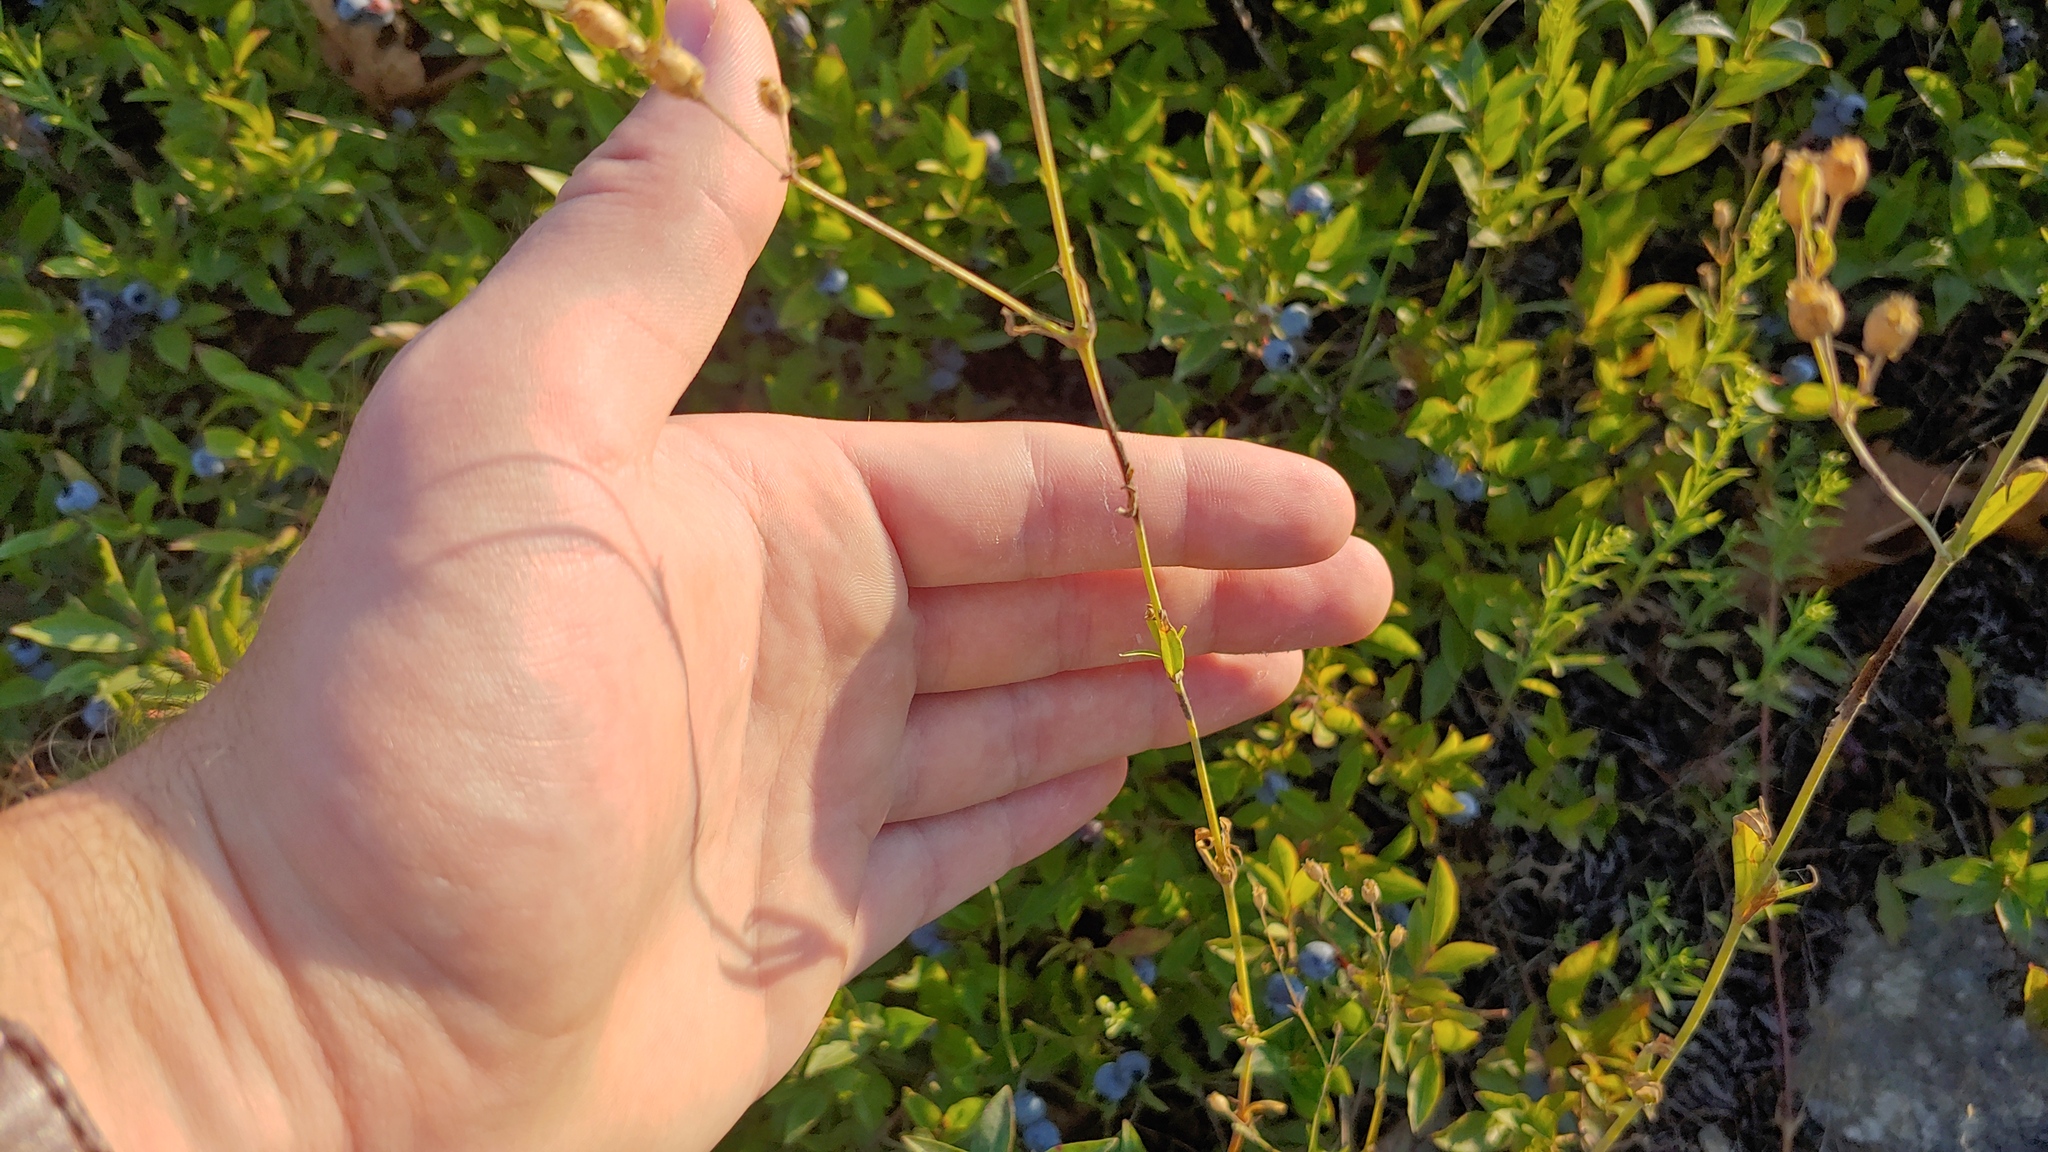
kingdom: Plantae
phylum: Tracheophyta
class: Magnoliopsida
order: Caryophyllales
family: Caryophyllaceae
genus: Silene
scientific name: Silene antirrhina
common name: Sleepy catchfly
